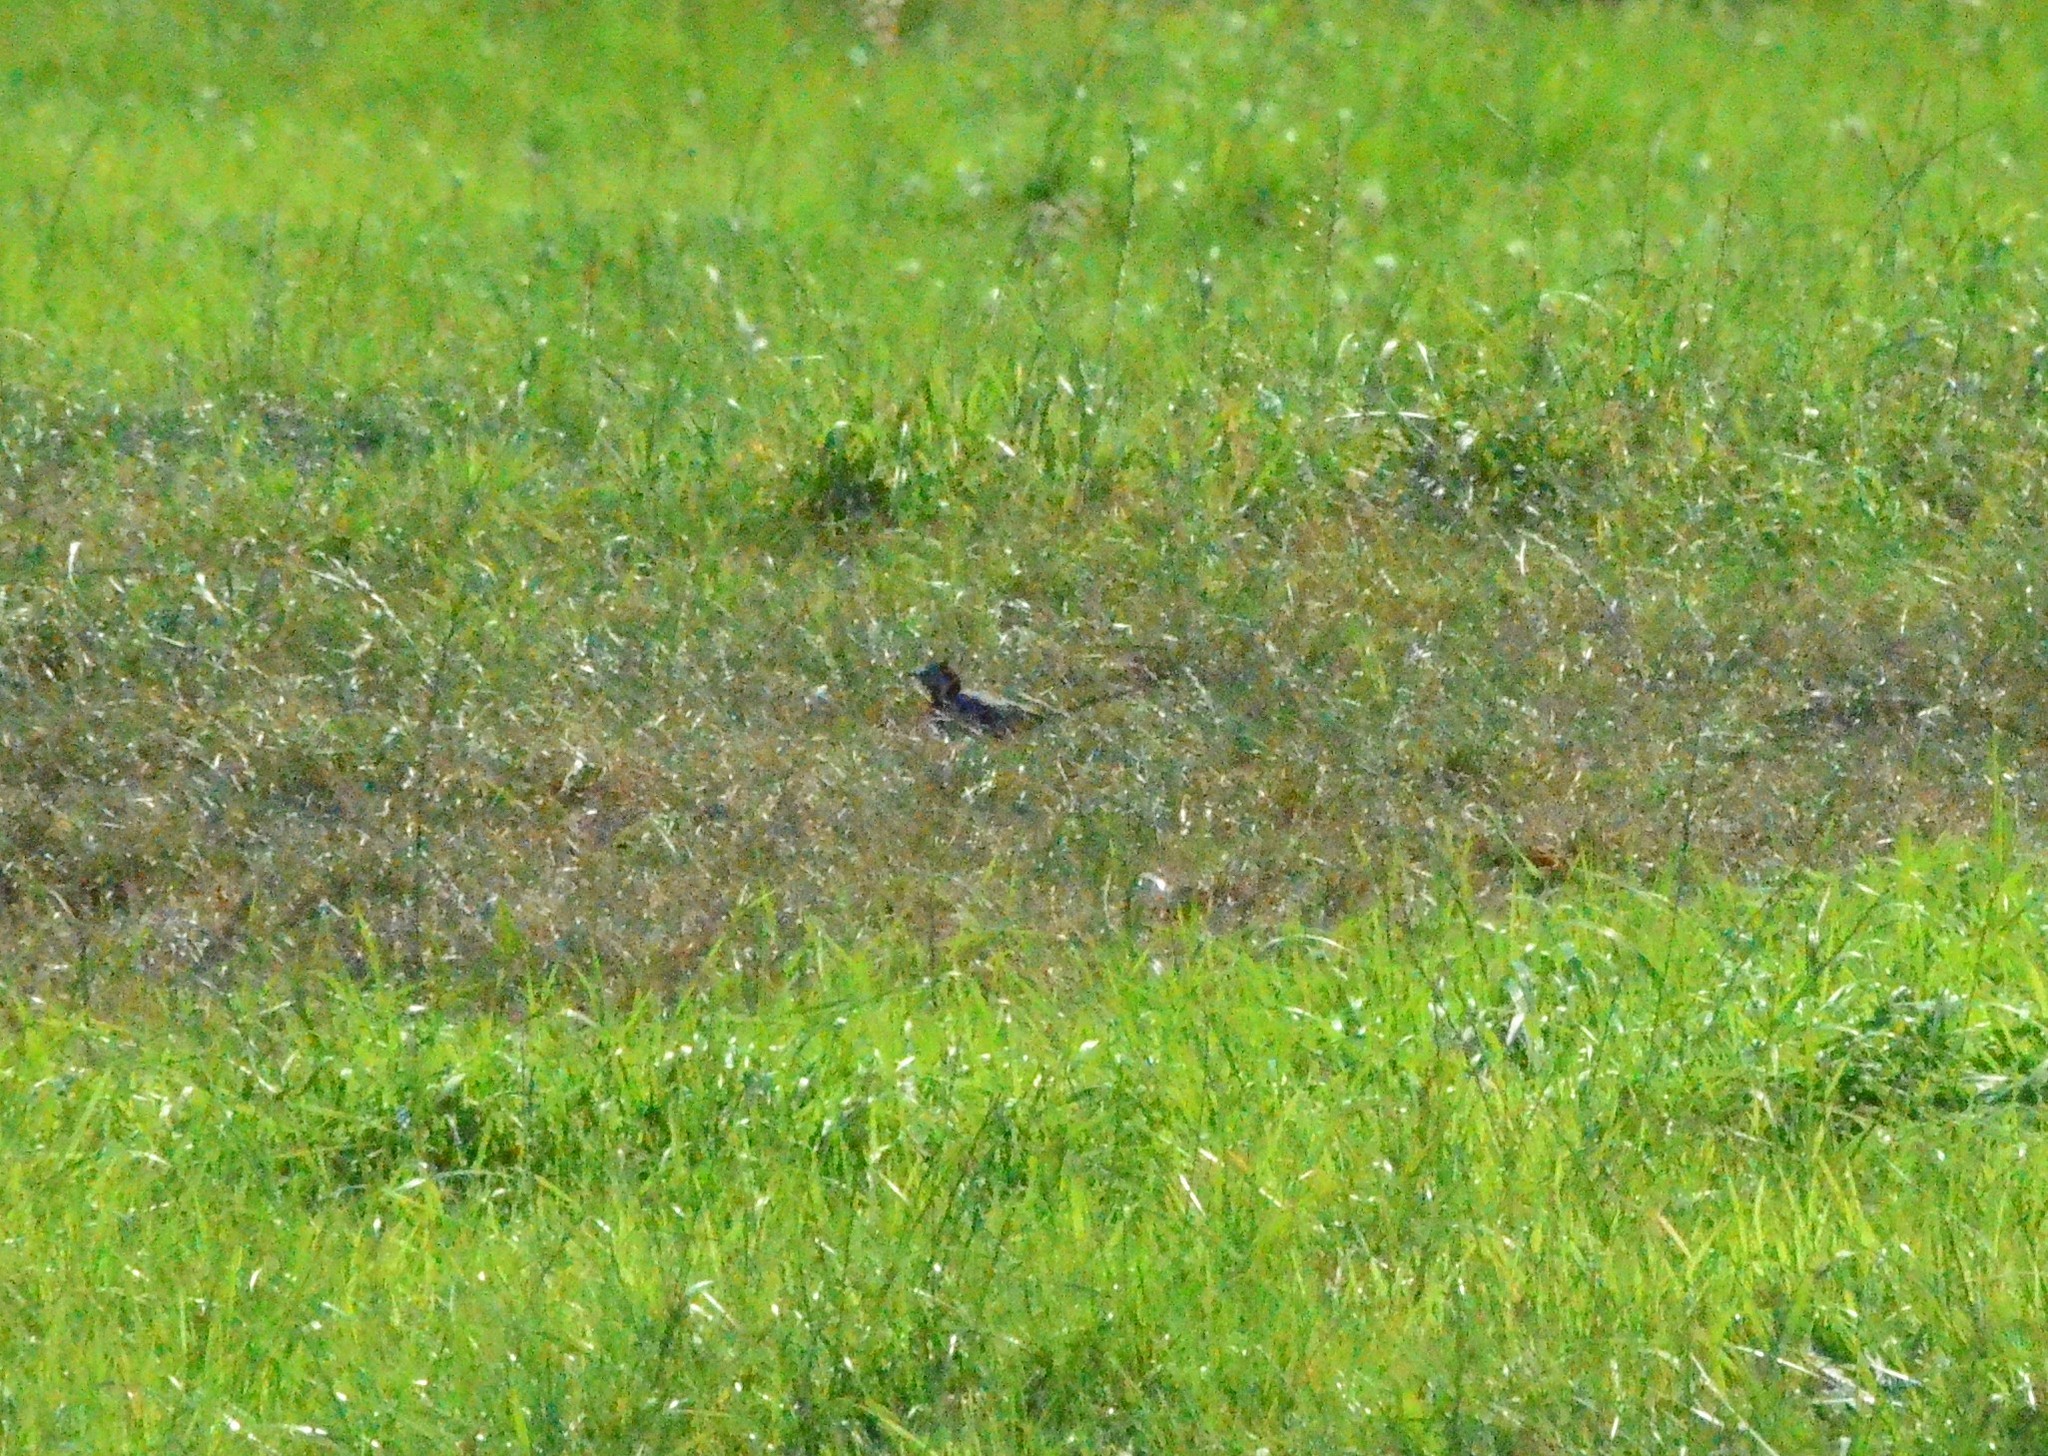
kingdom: Animalia
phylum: Chordata
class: Aves
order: Passeriformes
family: Motacillidae
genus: Motacilla
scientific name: Motacilla alba
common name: White wagtail
